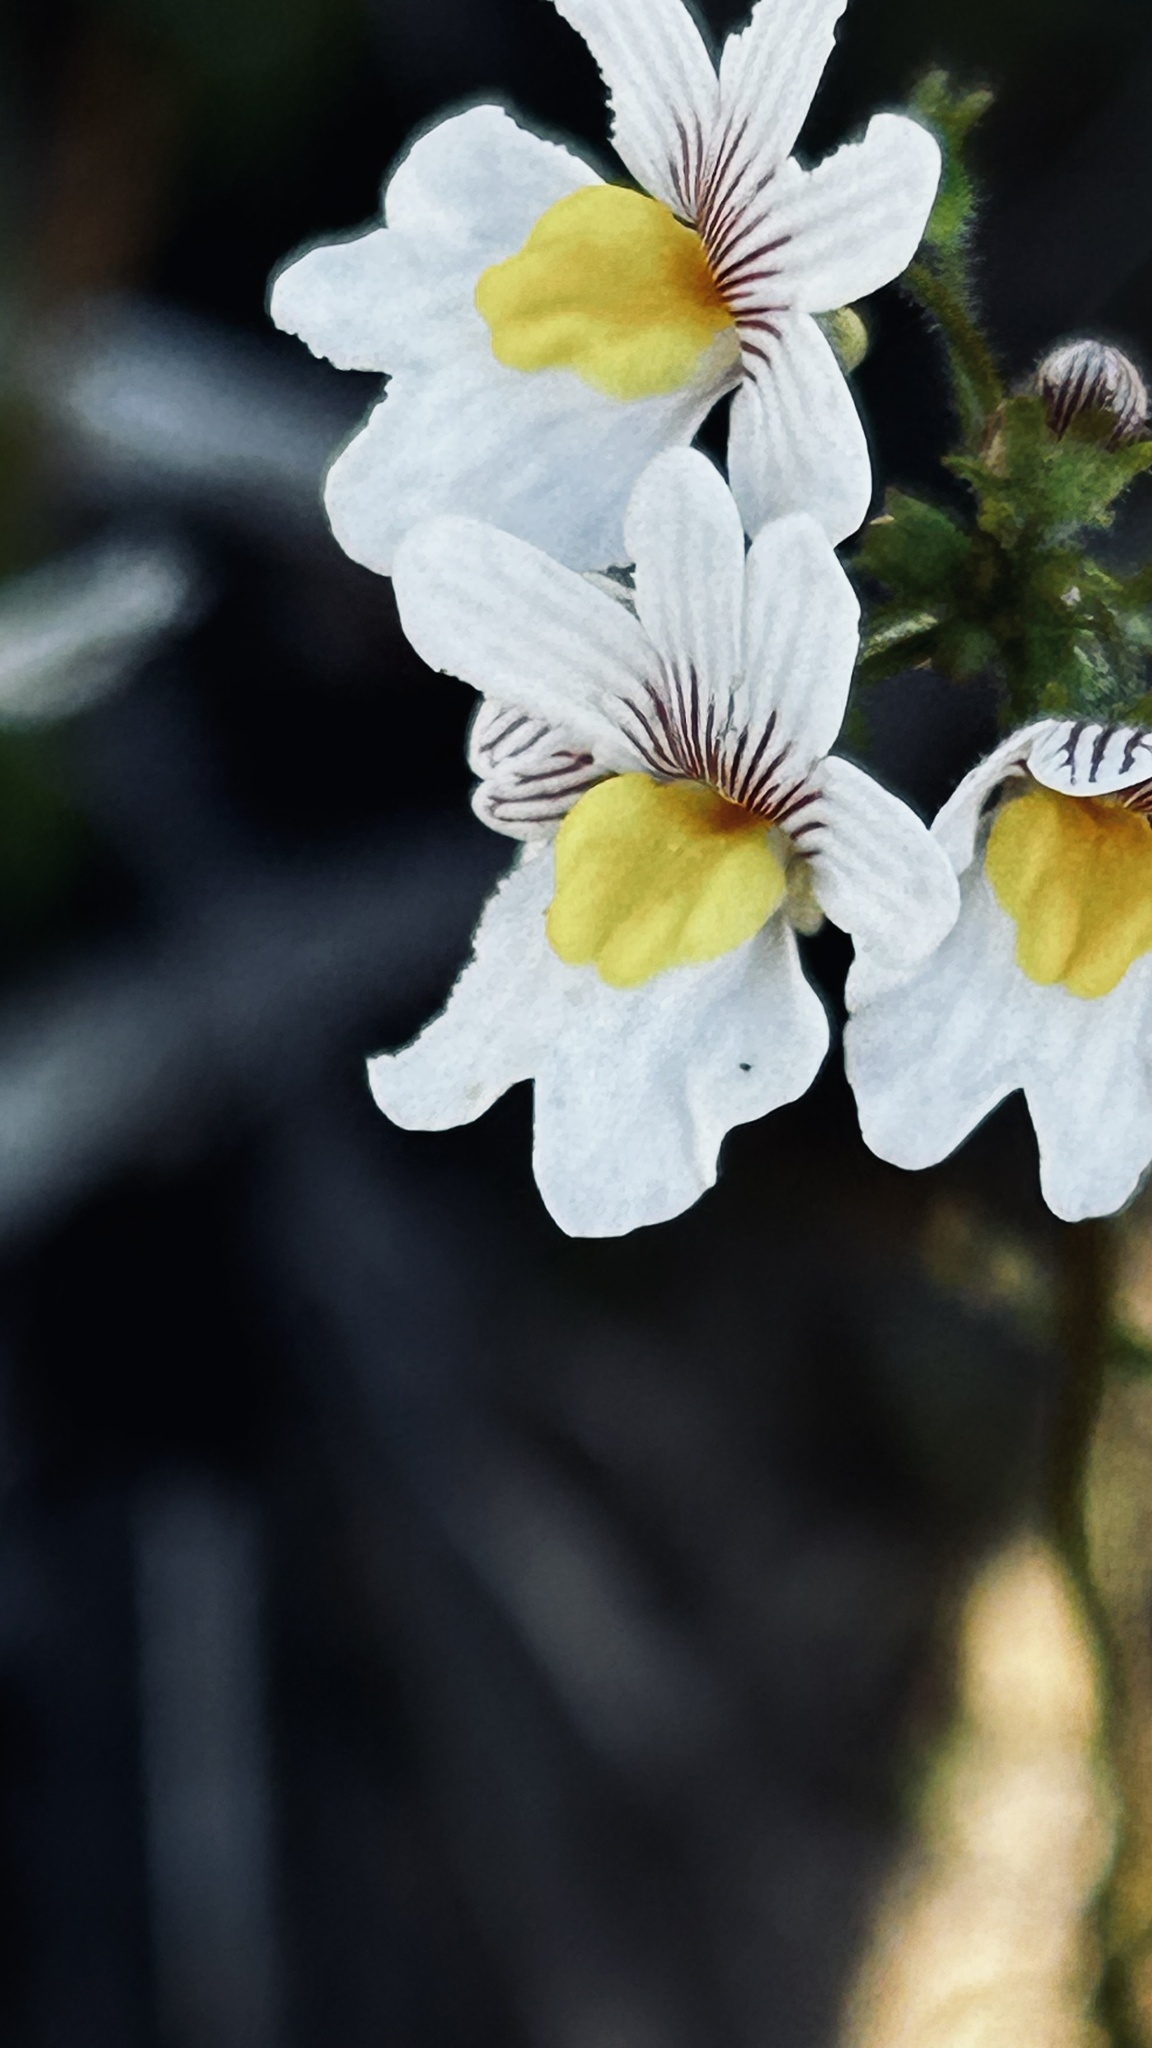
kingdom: Plantae
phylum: Tracheophyta
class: Magnoliopsida
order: Lamiales
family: Scrophulariaceae
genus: Nemesia
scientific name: Nemesia affinis
